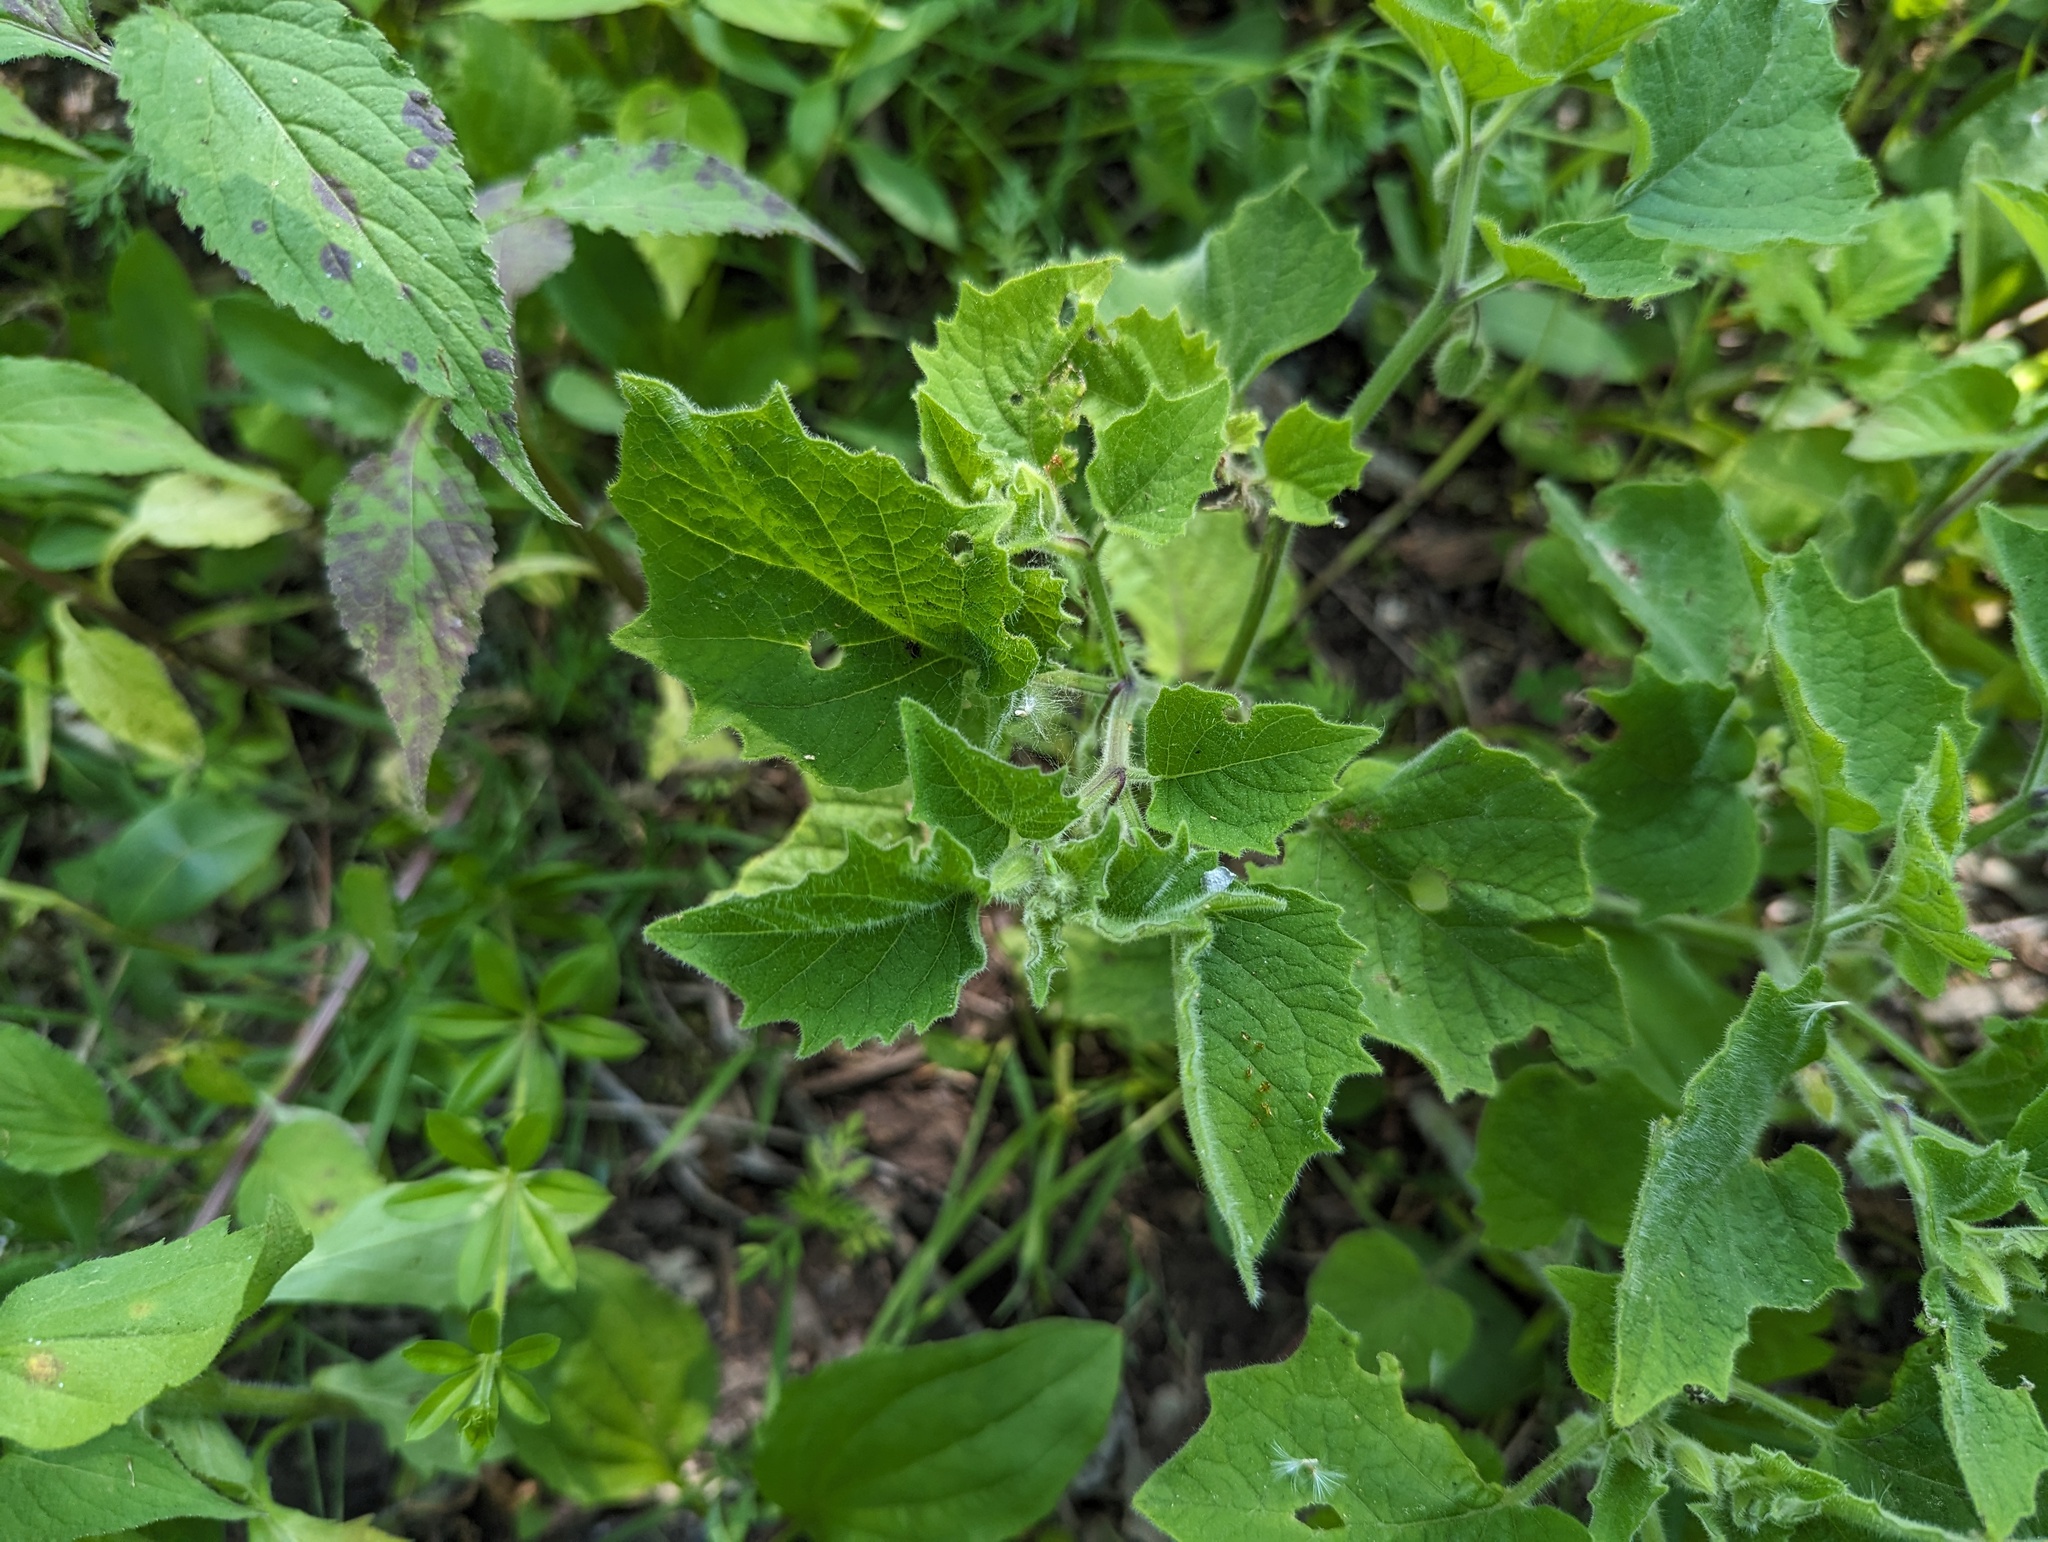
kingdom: Plantae
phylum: Tracheophyta
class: Magnoliopsida
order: Solanales
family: Solanaceae
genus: Physalis
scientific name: Physalis heterophylla
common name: Clammy ground-cherry
